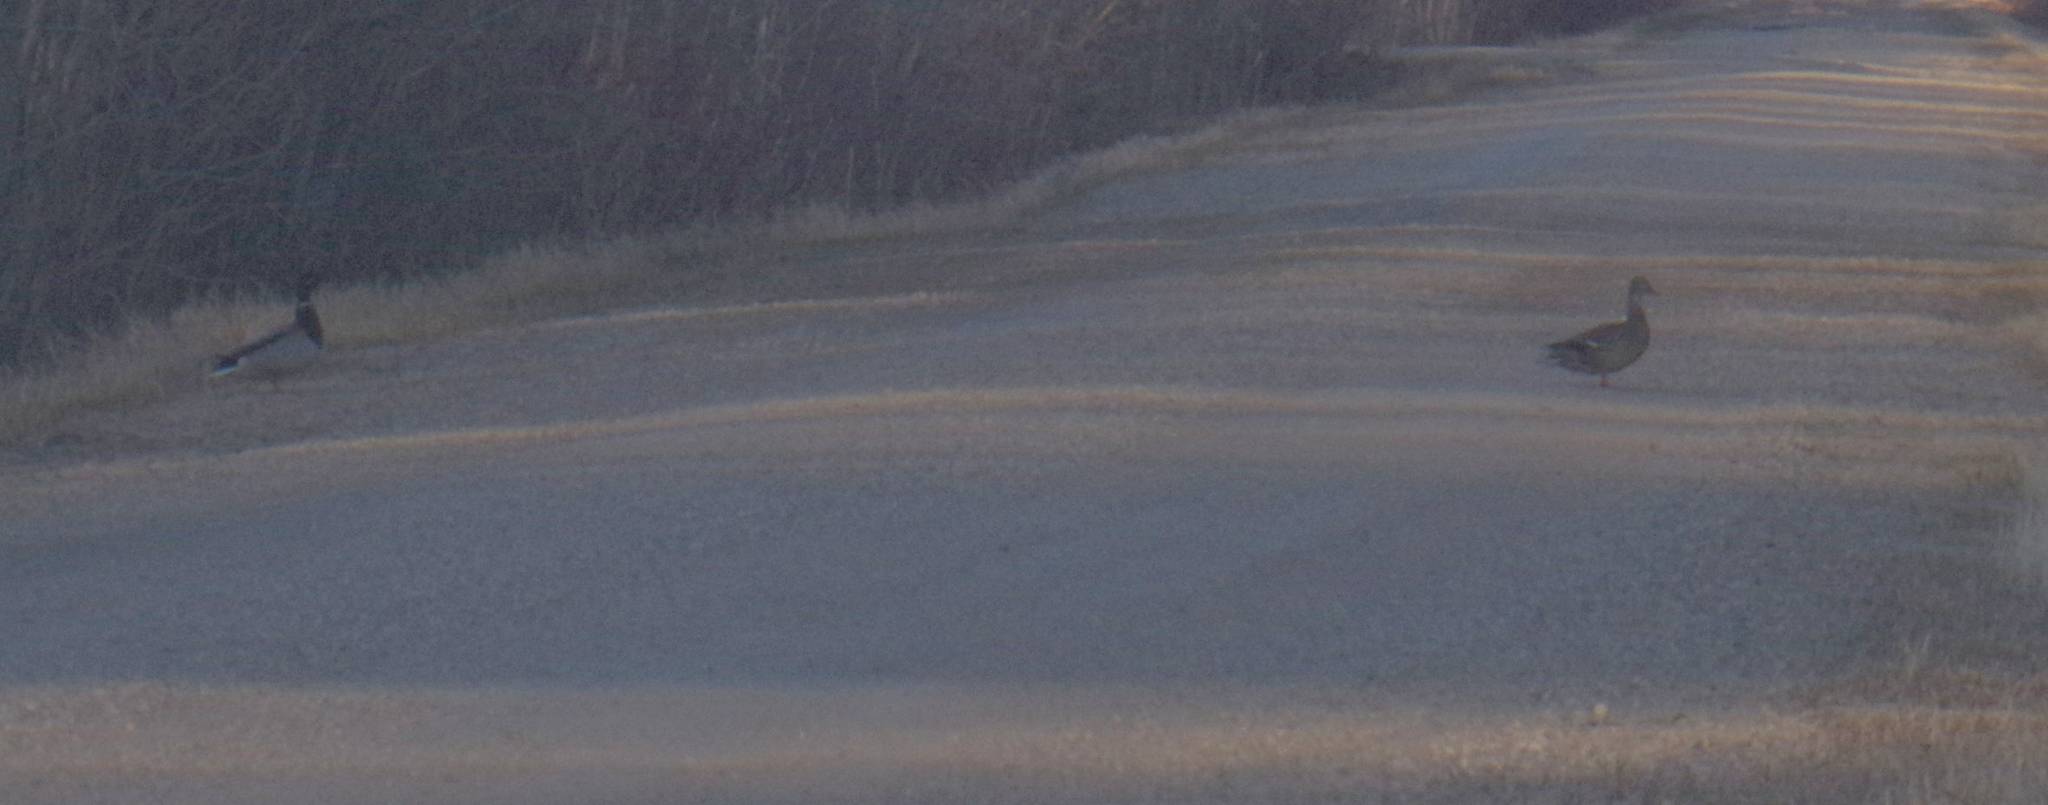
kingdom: Animalia
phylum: Chordata
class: Aves
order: Anseriformes
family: Anatidae
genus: Anas
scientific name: Anas platyrhynchos
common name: Mallard
